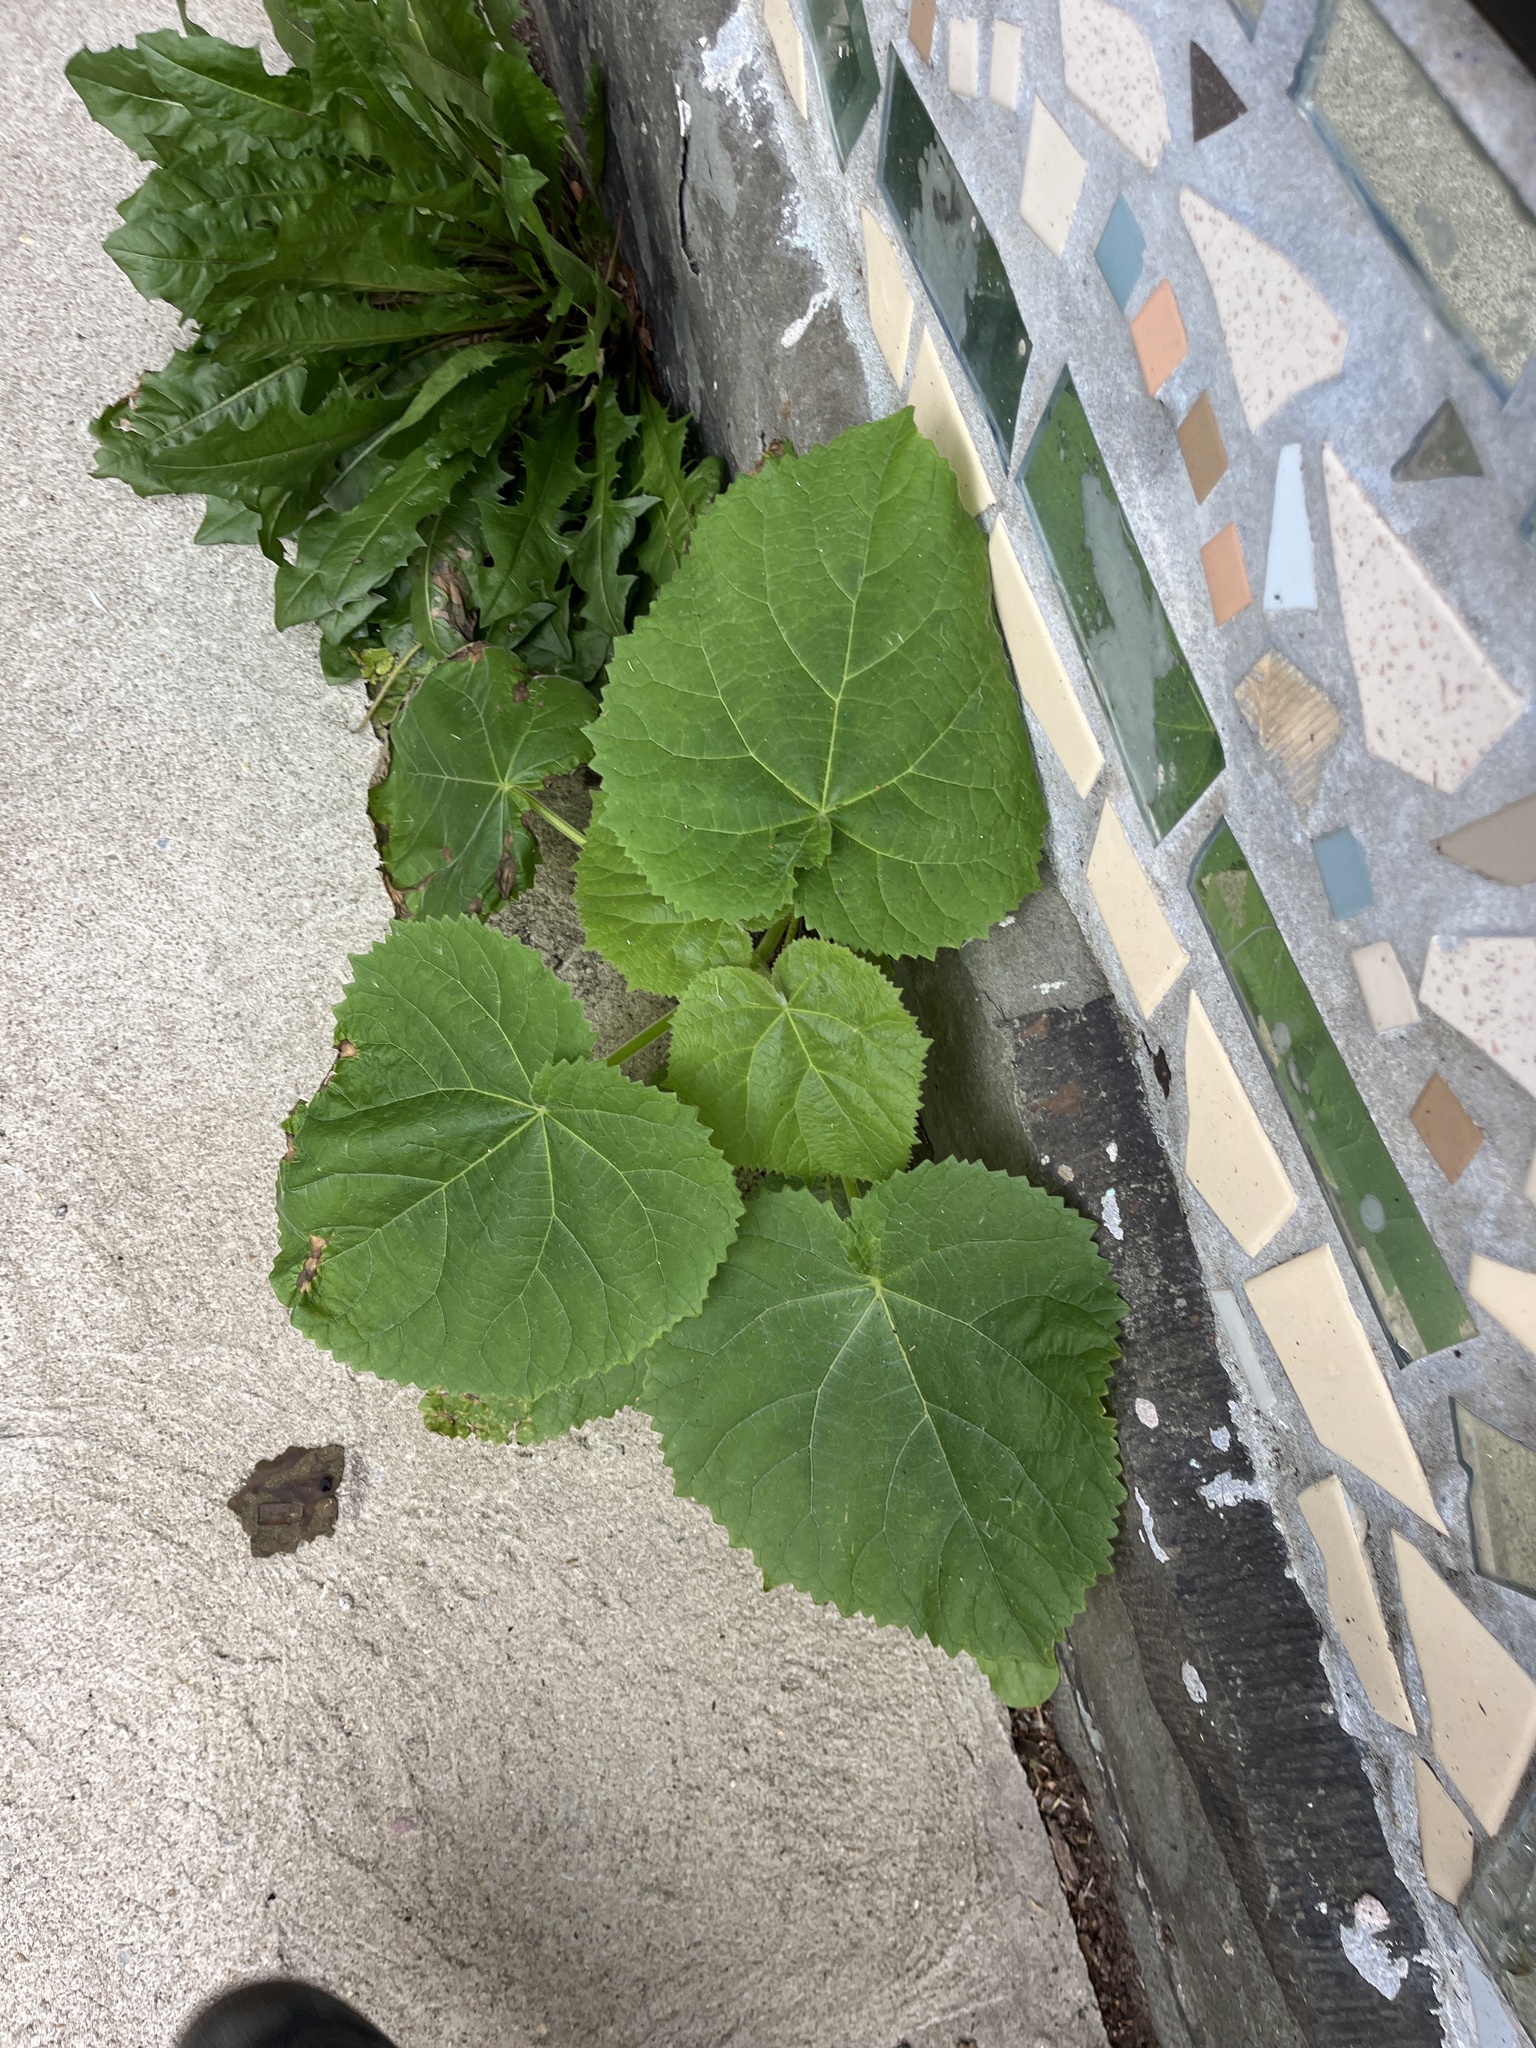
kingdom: Plantae
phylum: Tracheophyta
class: Magnoliopsida
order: Lamiales
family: Paulowniaceae
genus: Paulownia
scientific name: Paulownia tomentosa
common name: Foxglove-tree
